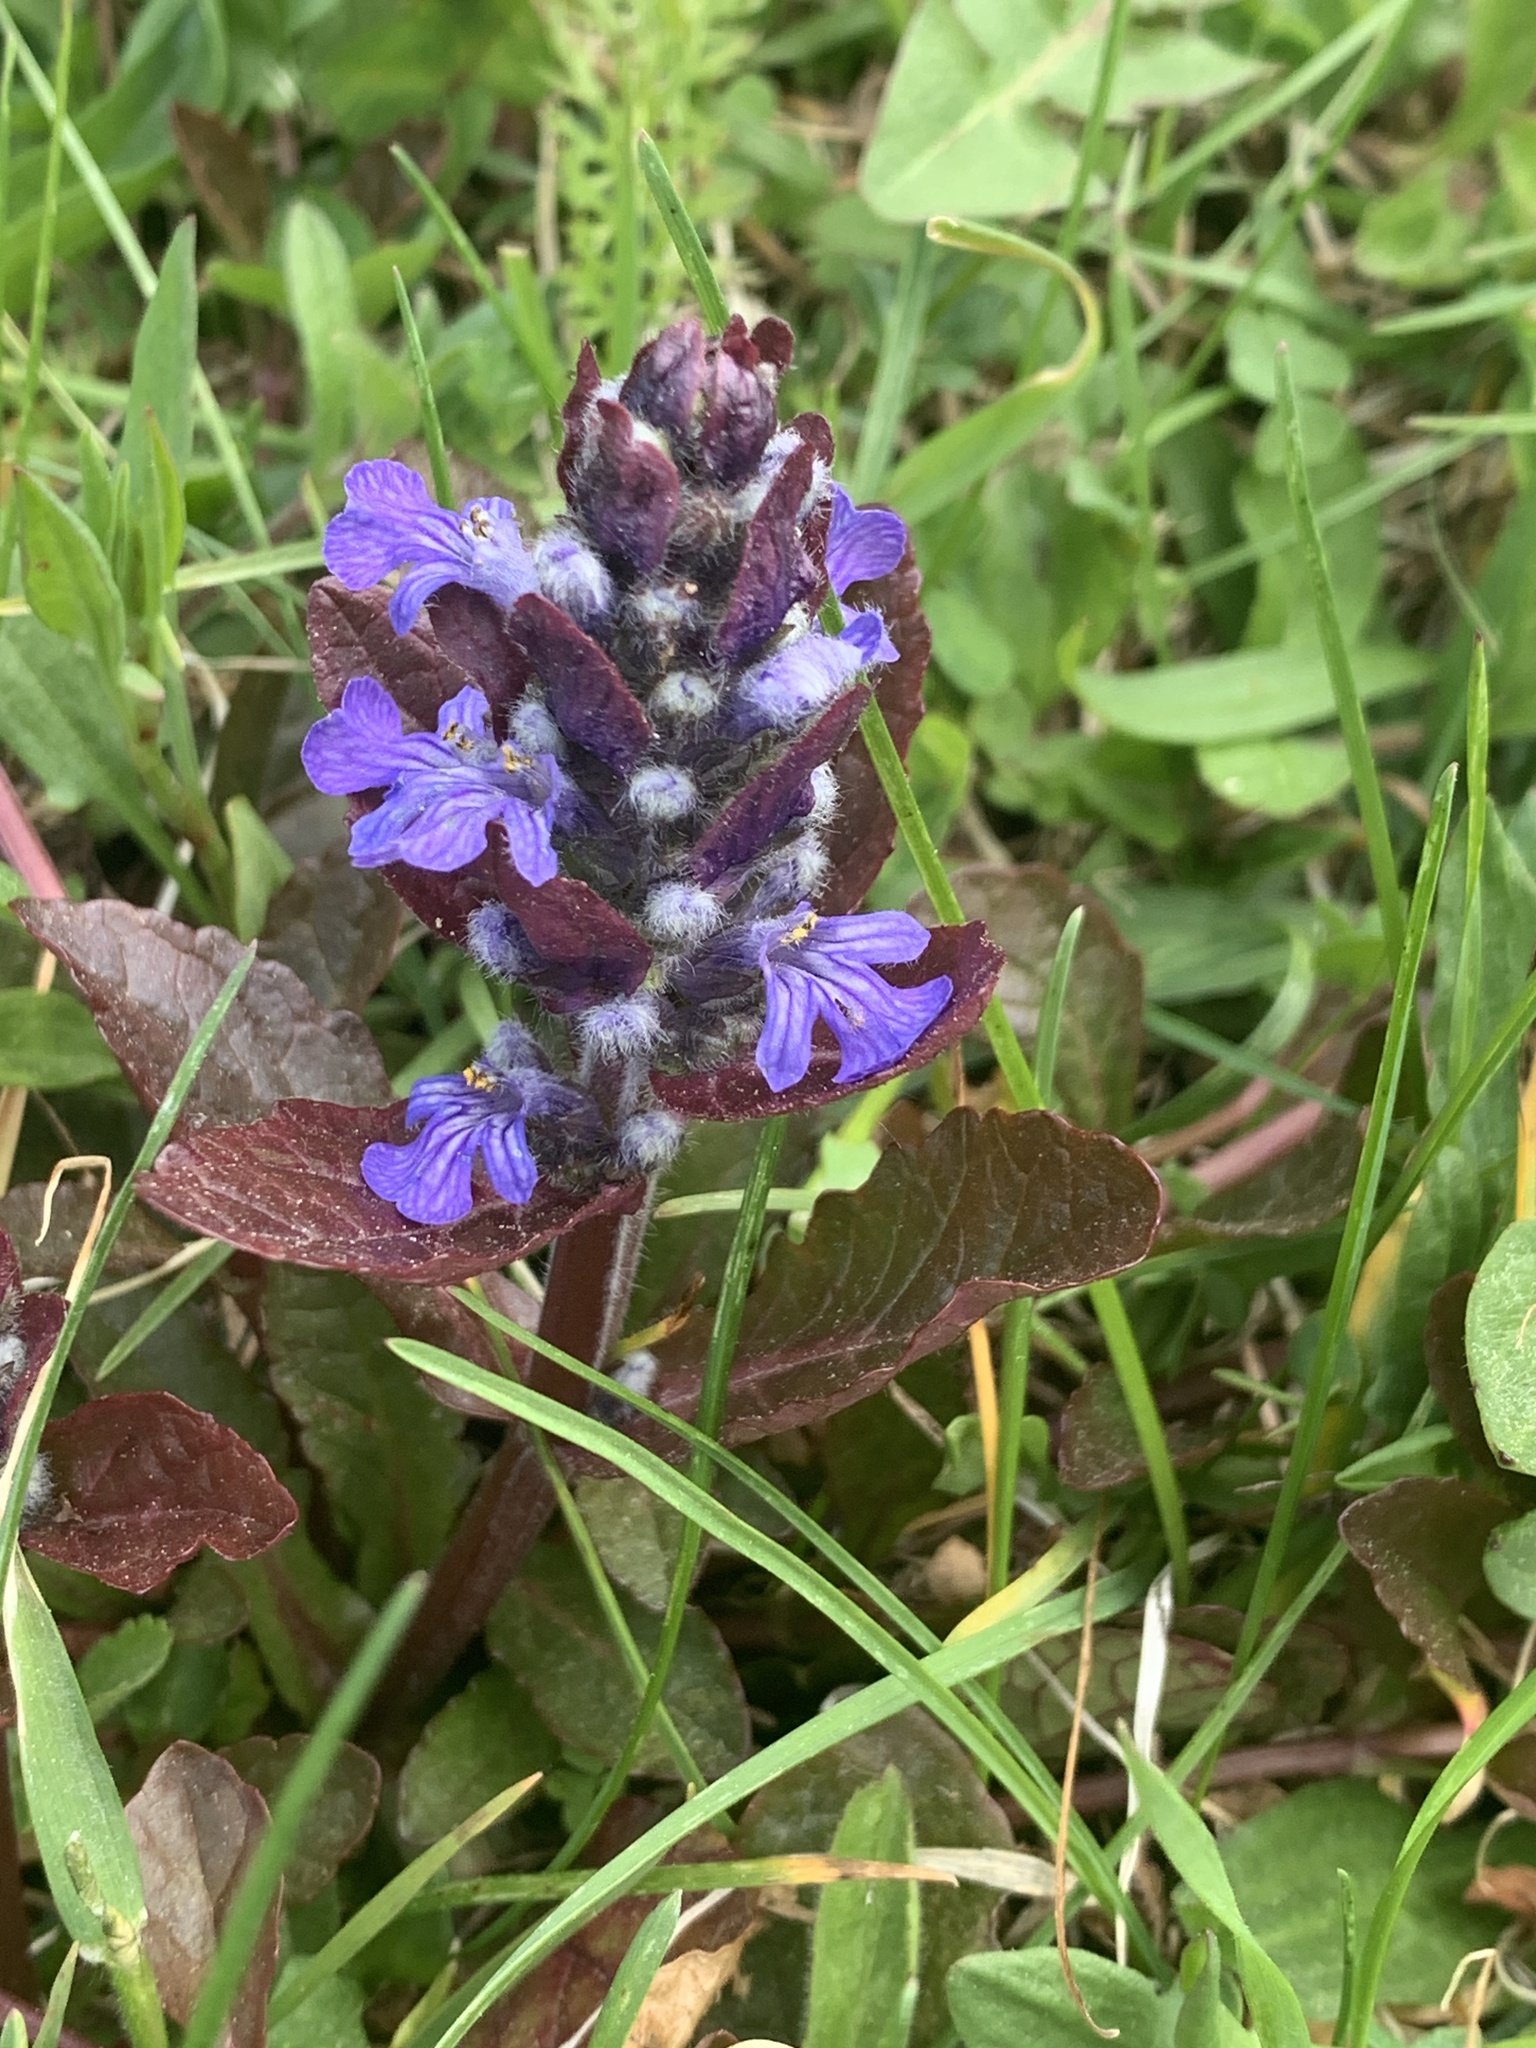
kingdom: Plantae
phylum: Tracheophyta
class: Magnoliopsida
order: Lamiales
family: Lamiaceae
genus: Ajuga
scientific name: Ajuga reptans
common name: Bugle
